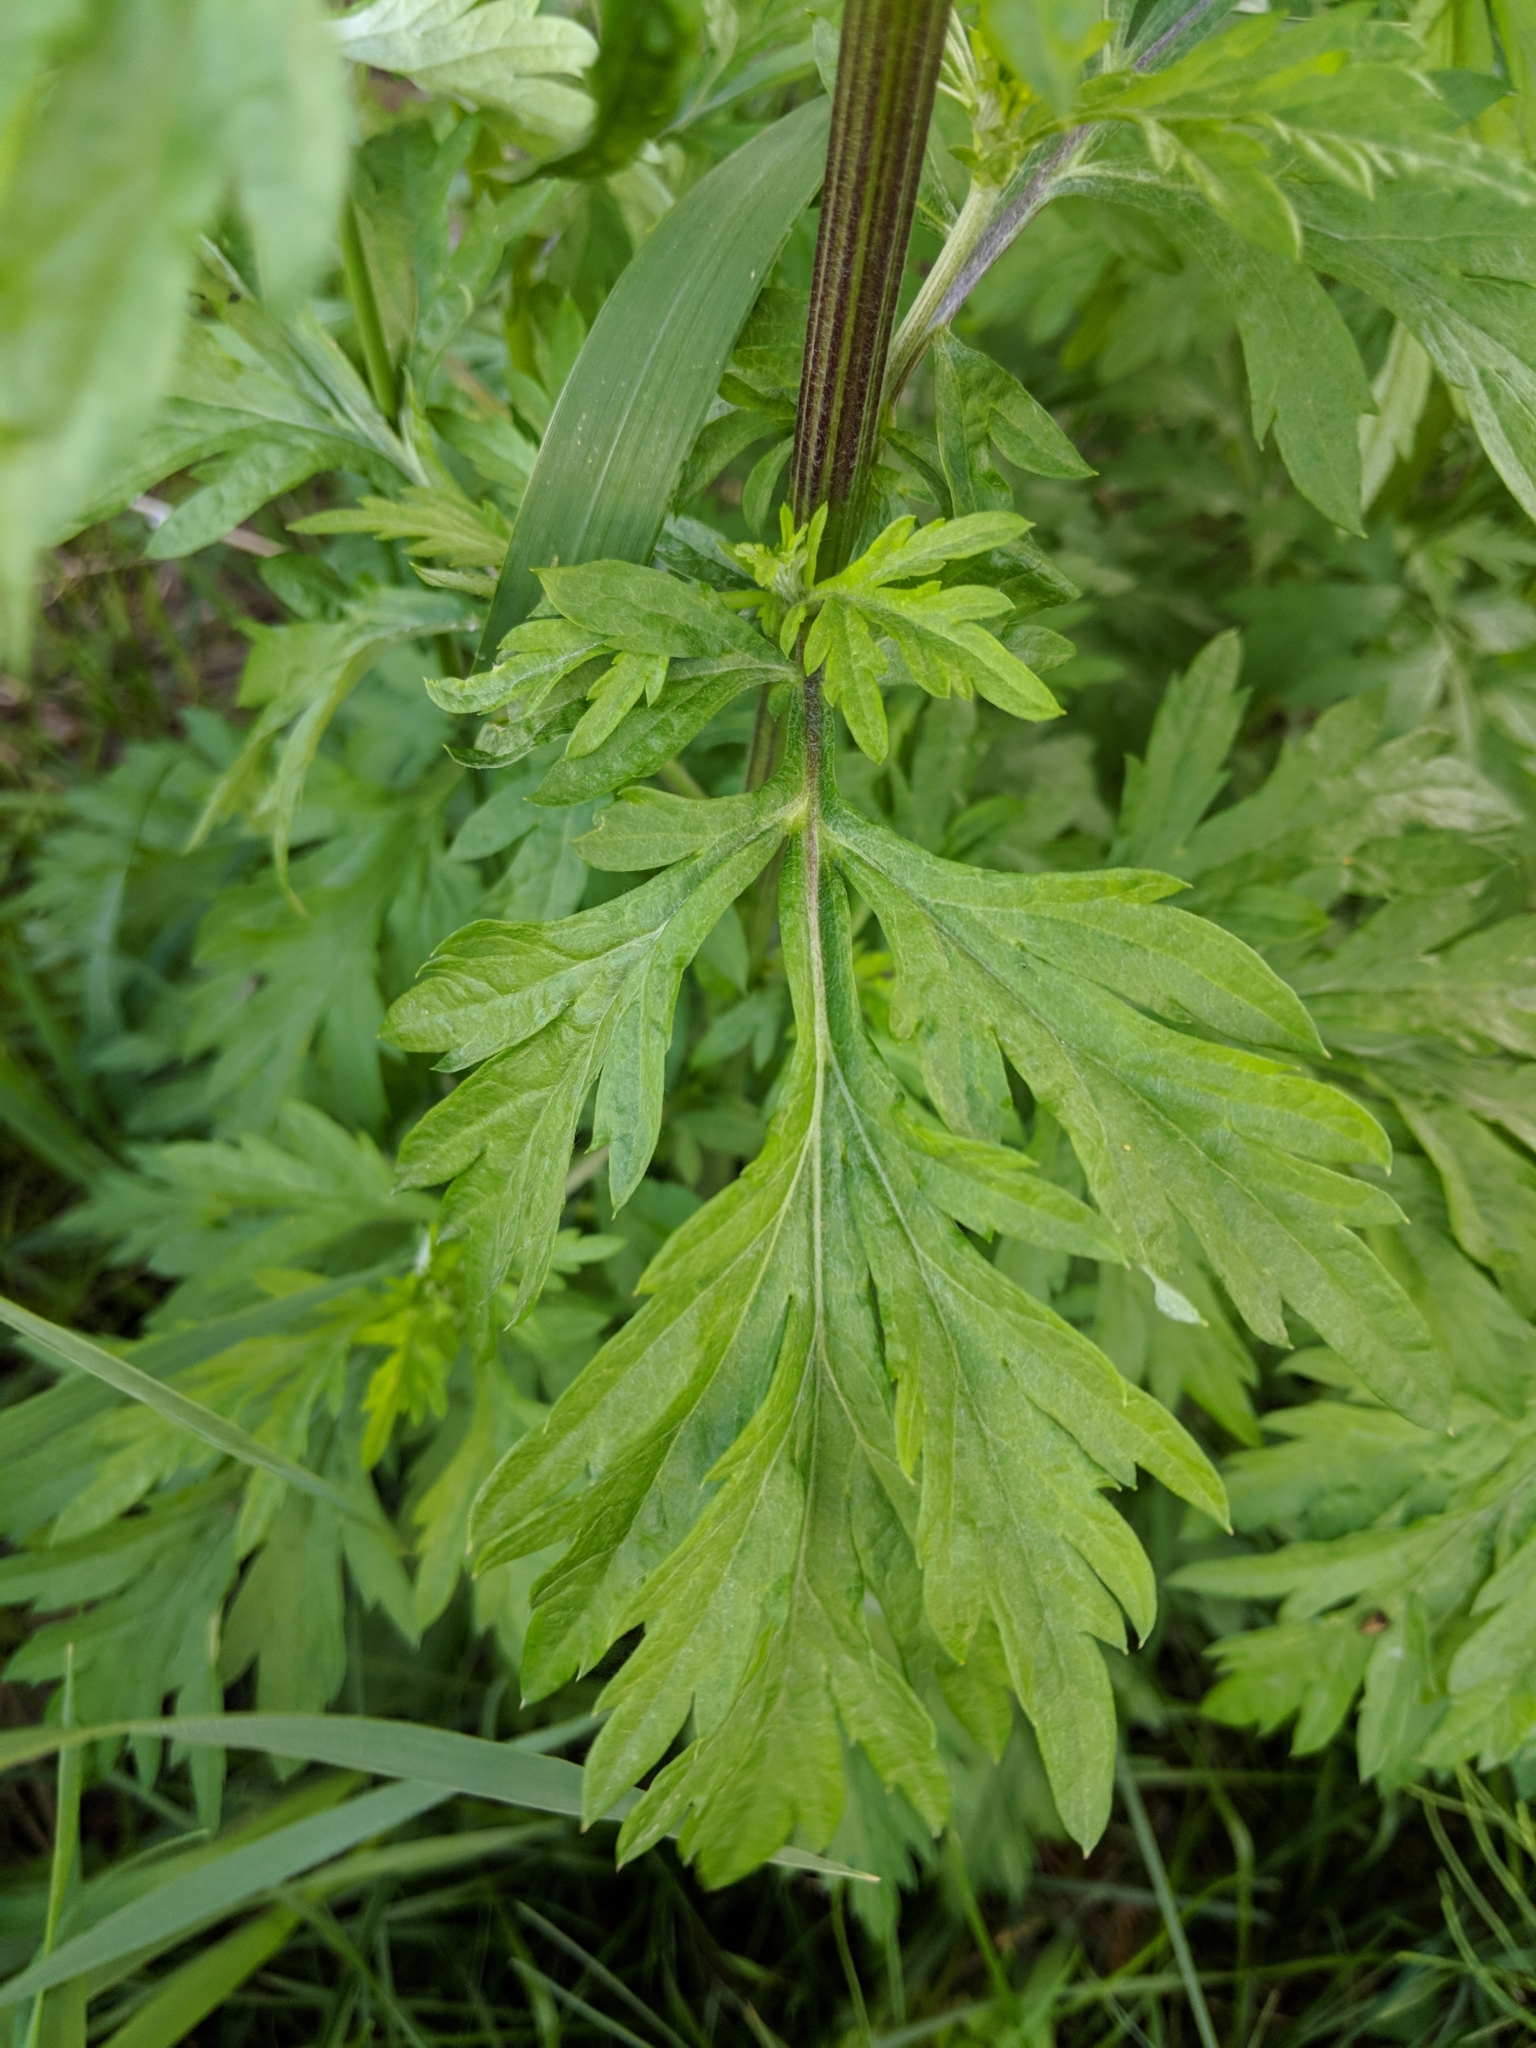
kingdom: Plantae
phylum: Tracheophyta
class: Magnoliopsida
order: Asterales
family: Asteraceae
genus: Artemisia
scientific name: Artemisia vulgaris
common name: Mugwort
